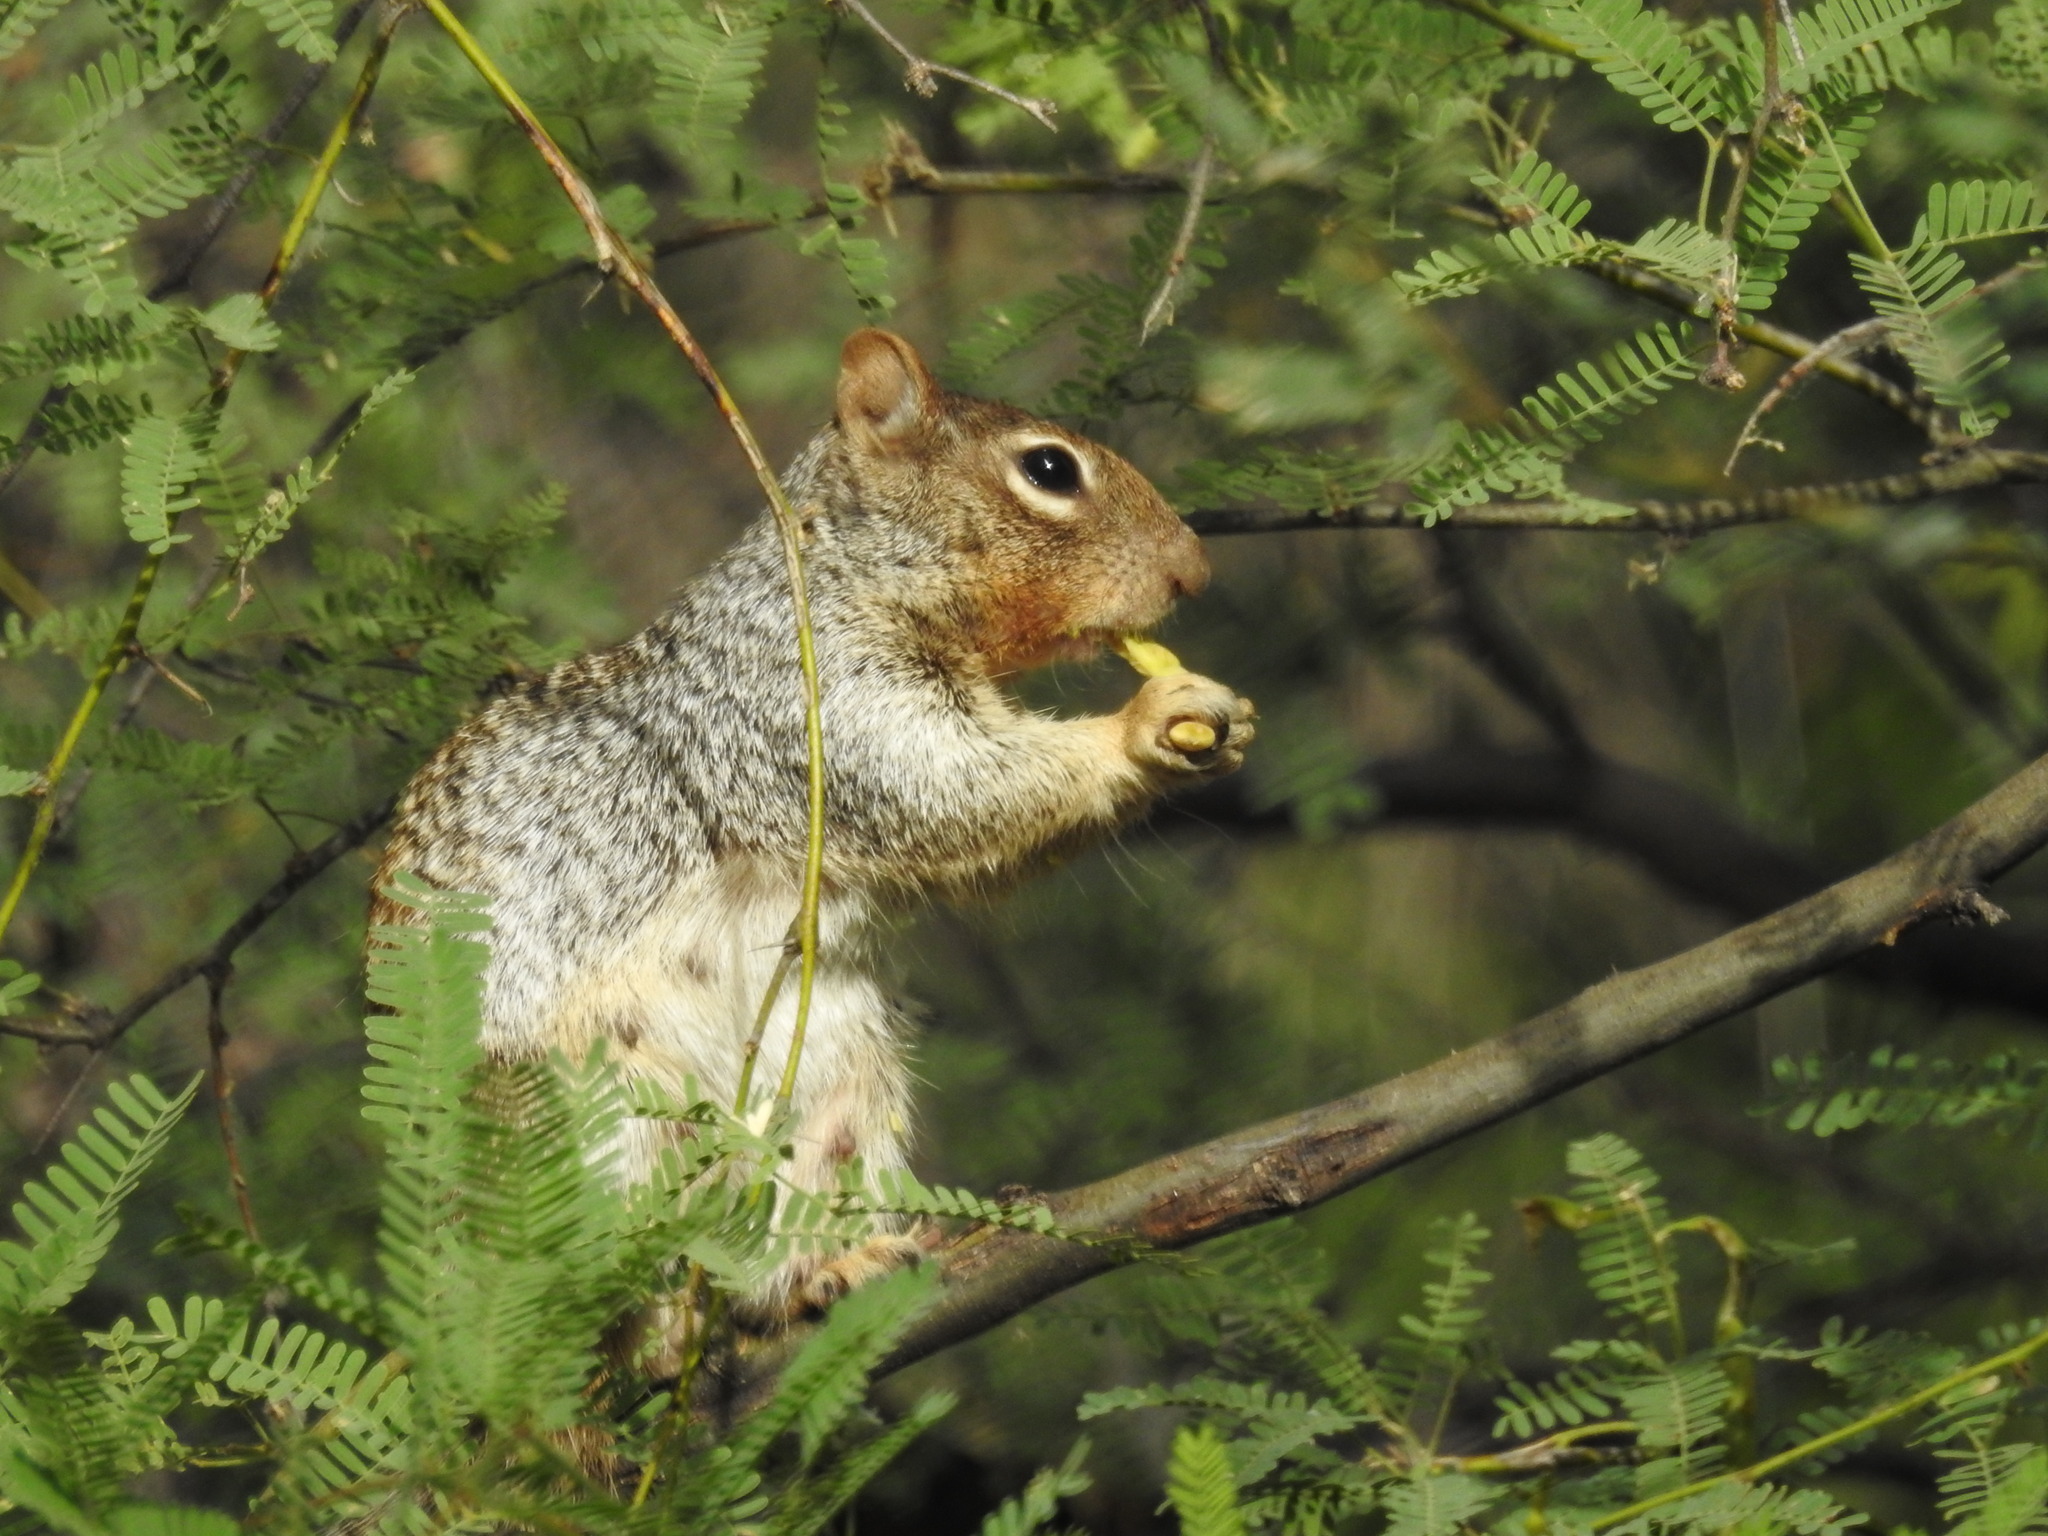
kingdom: Animalia
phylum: Chordata
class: Mammalia
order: Rodentia
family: Sciuridae
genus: Otospermophilus
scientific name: Otospermophilus variegatus
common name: Rock squirrel
